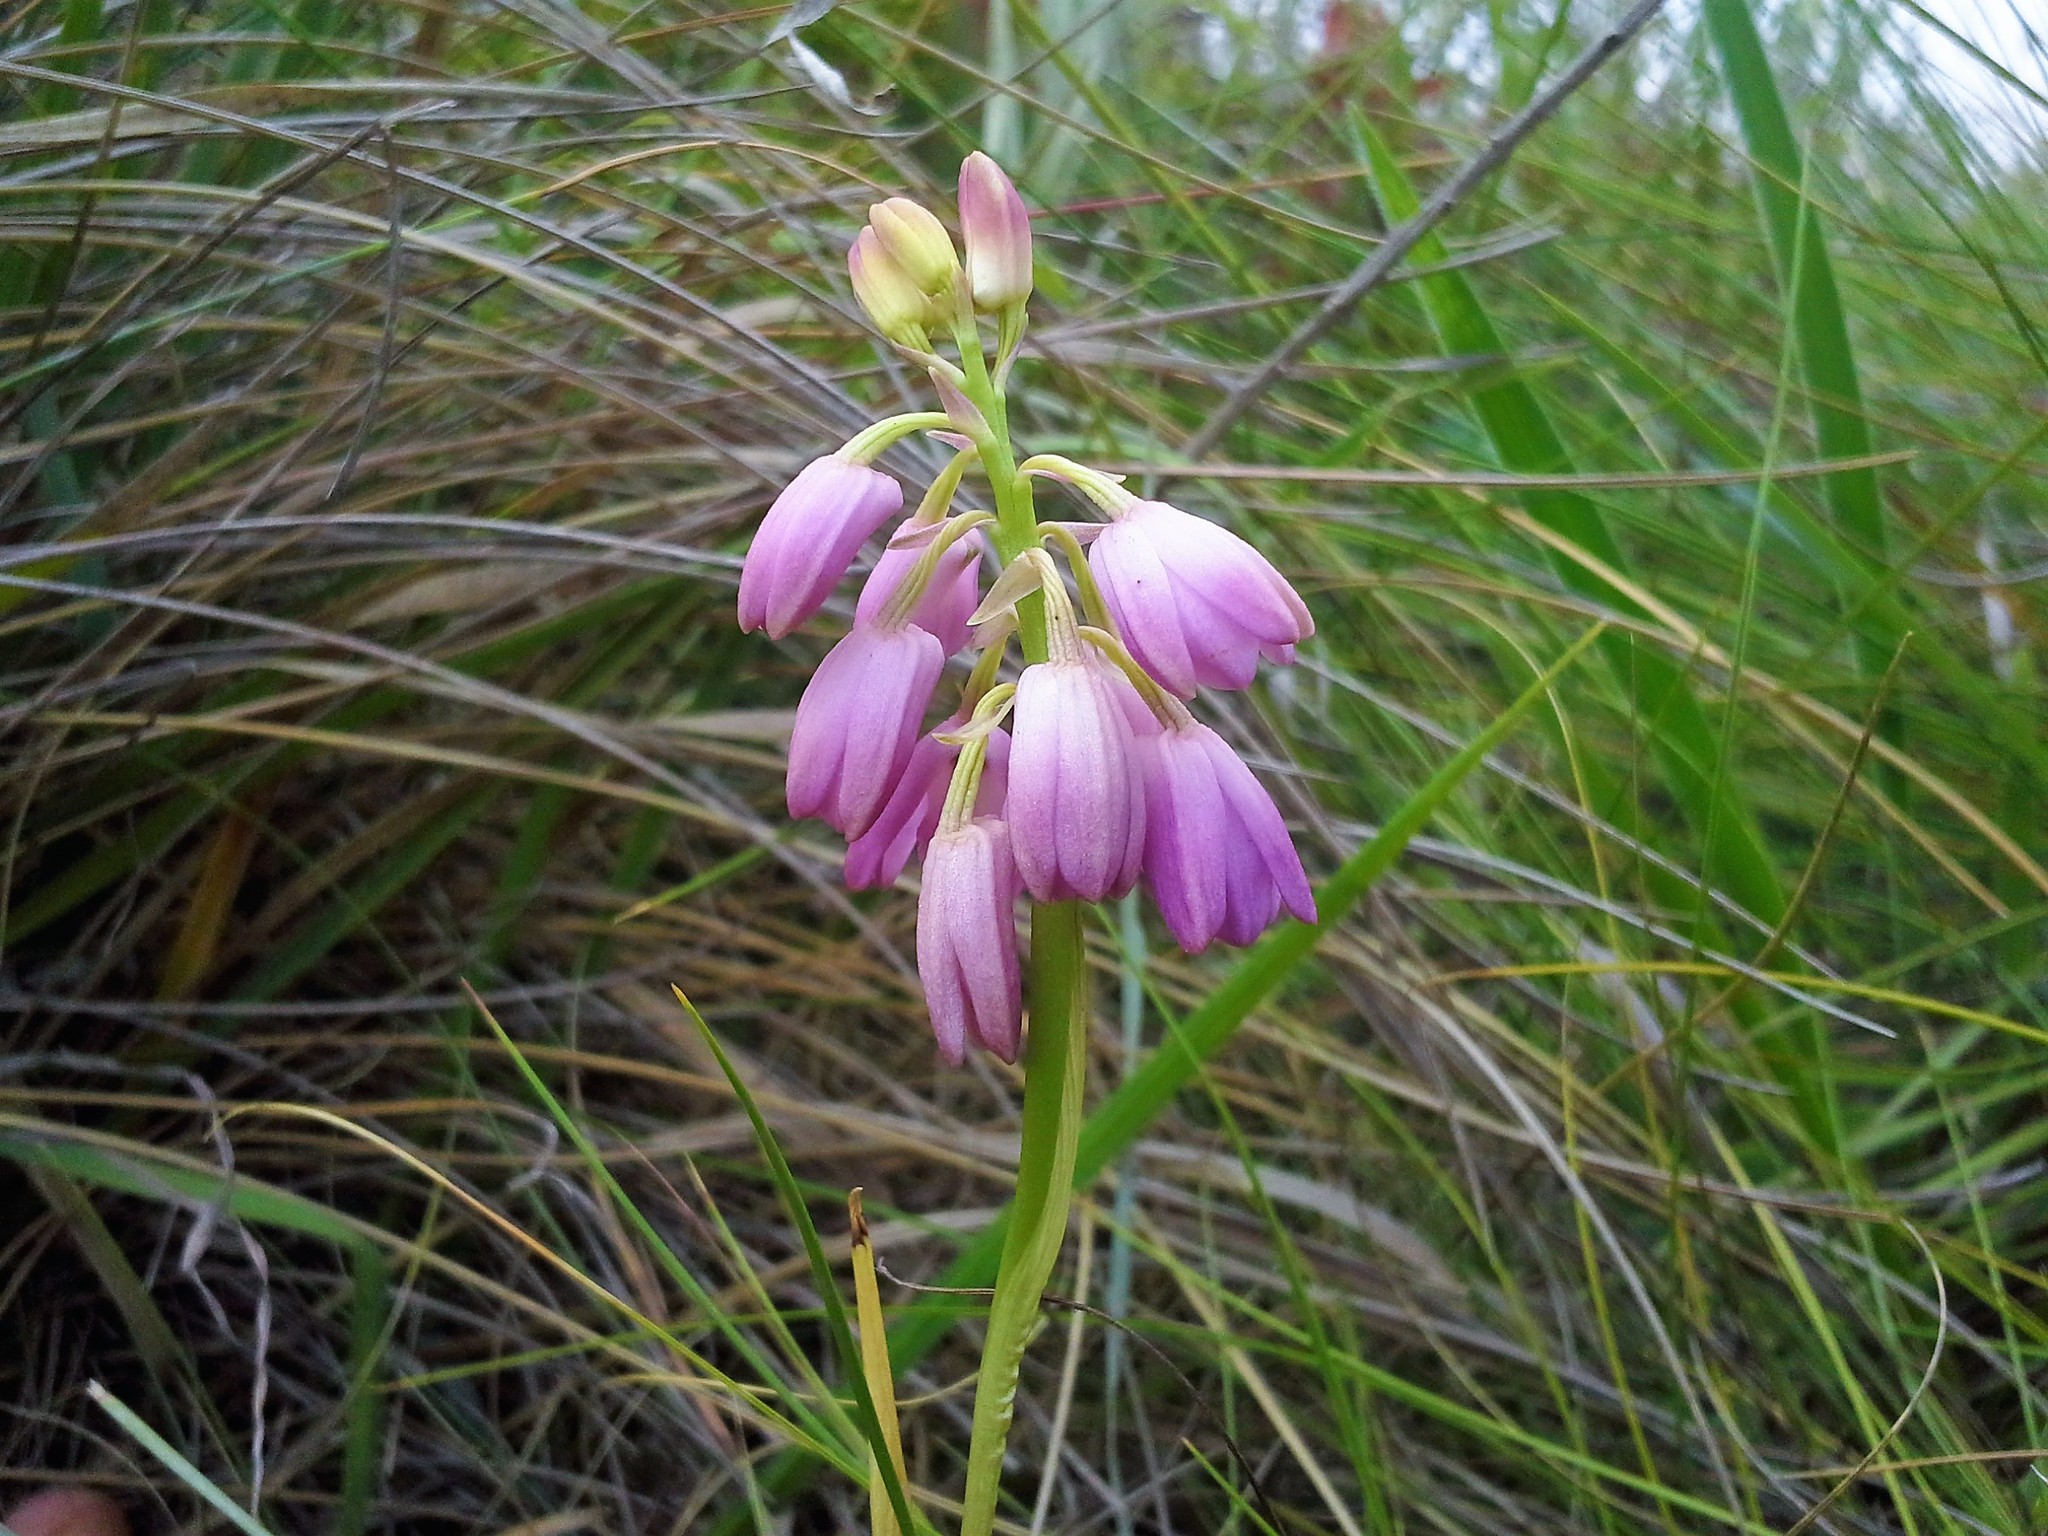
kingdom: Plantae
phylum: Tracheophyta
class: Liliopsida
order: Asparagales
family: Orchidaceae
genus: Eulophia
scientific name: Eulophia aculeata
